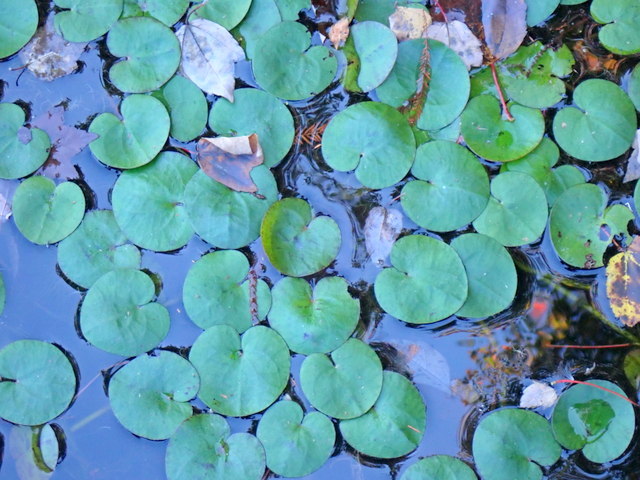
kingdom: Plantae
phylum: Tracheophyta
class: Magnoliopsida
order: Asterales
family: Menyanthaceae
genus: Nymphoides
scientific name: Nymphoides aquatica
